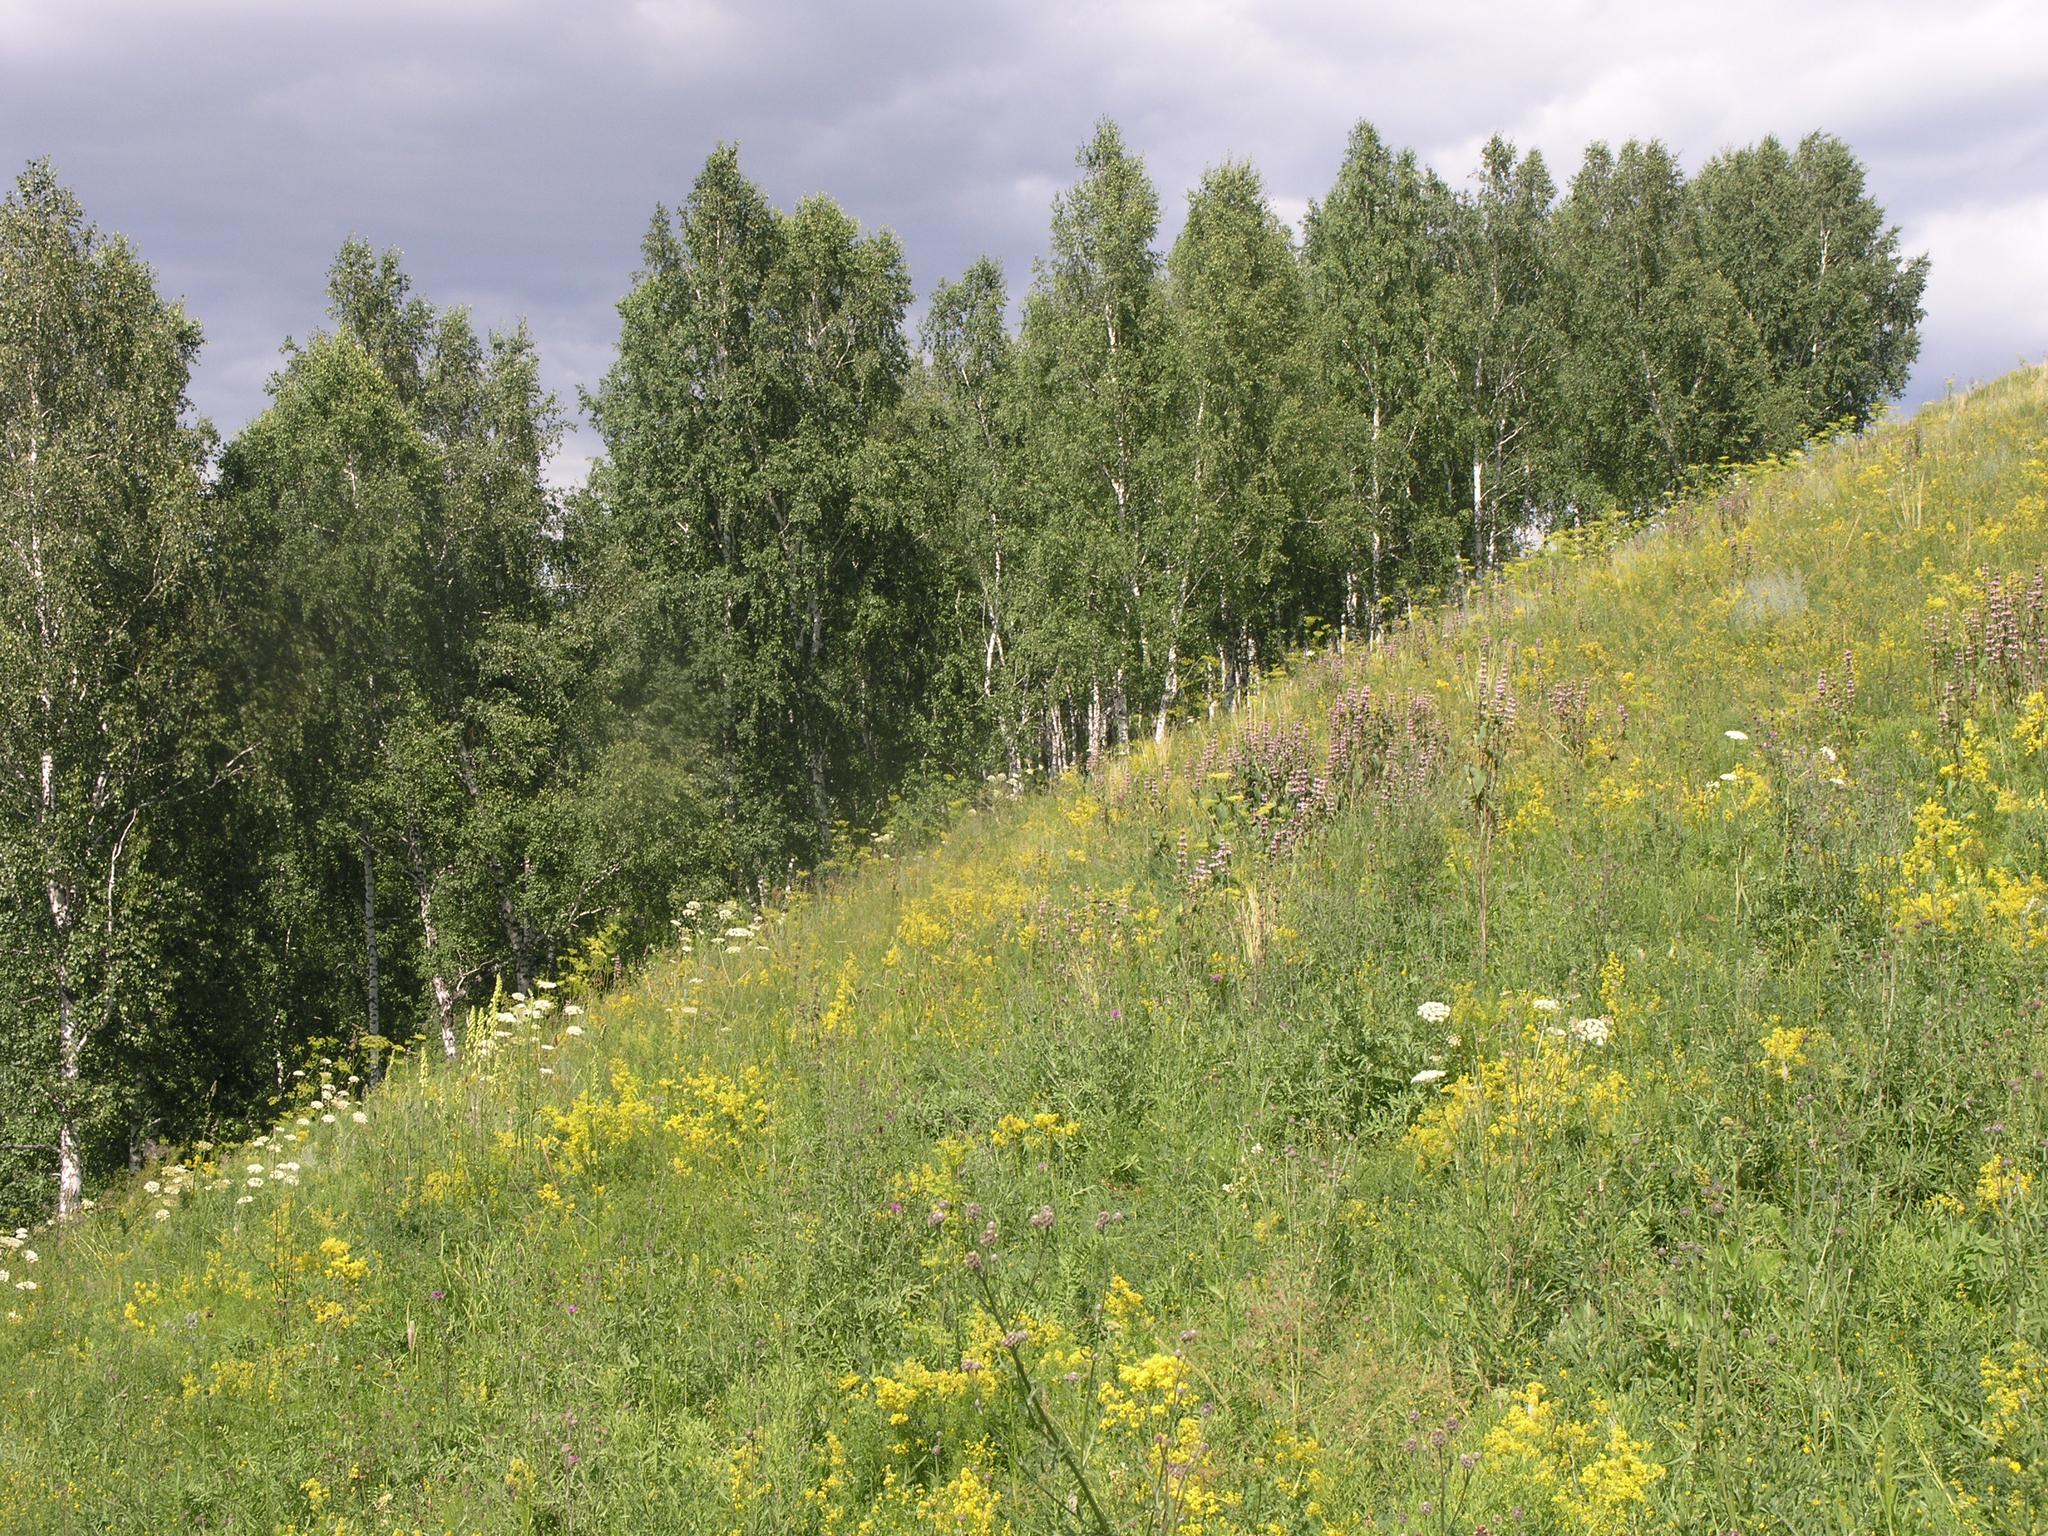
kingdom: Plantae
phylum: Tracheophyta
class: Magnoliopsida
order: Fagales
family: Betulaceae
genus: Betula
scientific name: Betula pendula
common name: Silver birch
